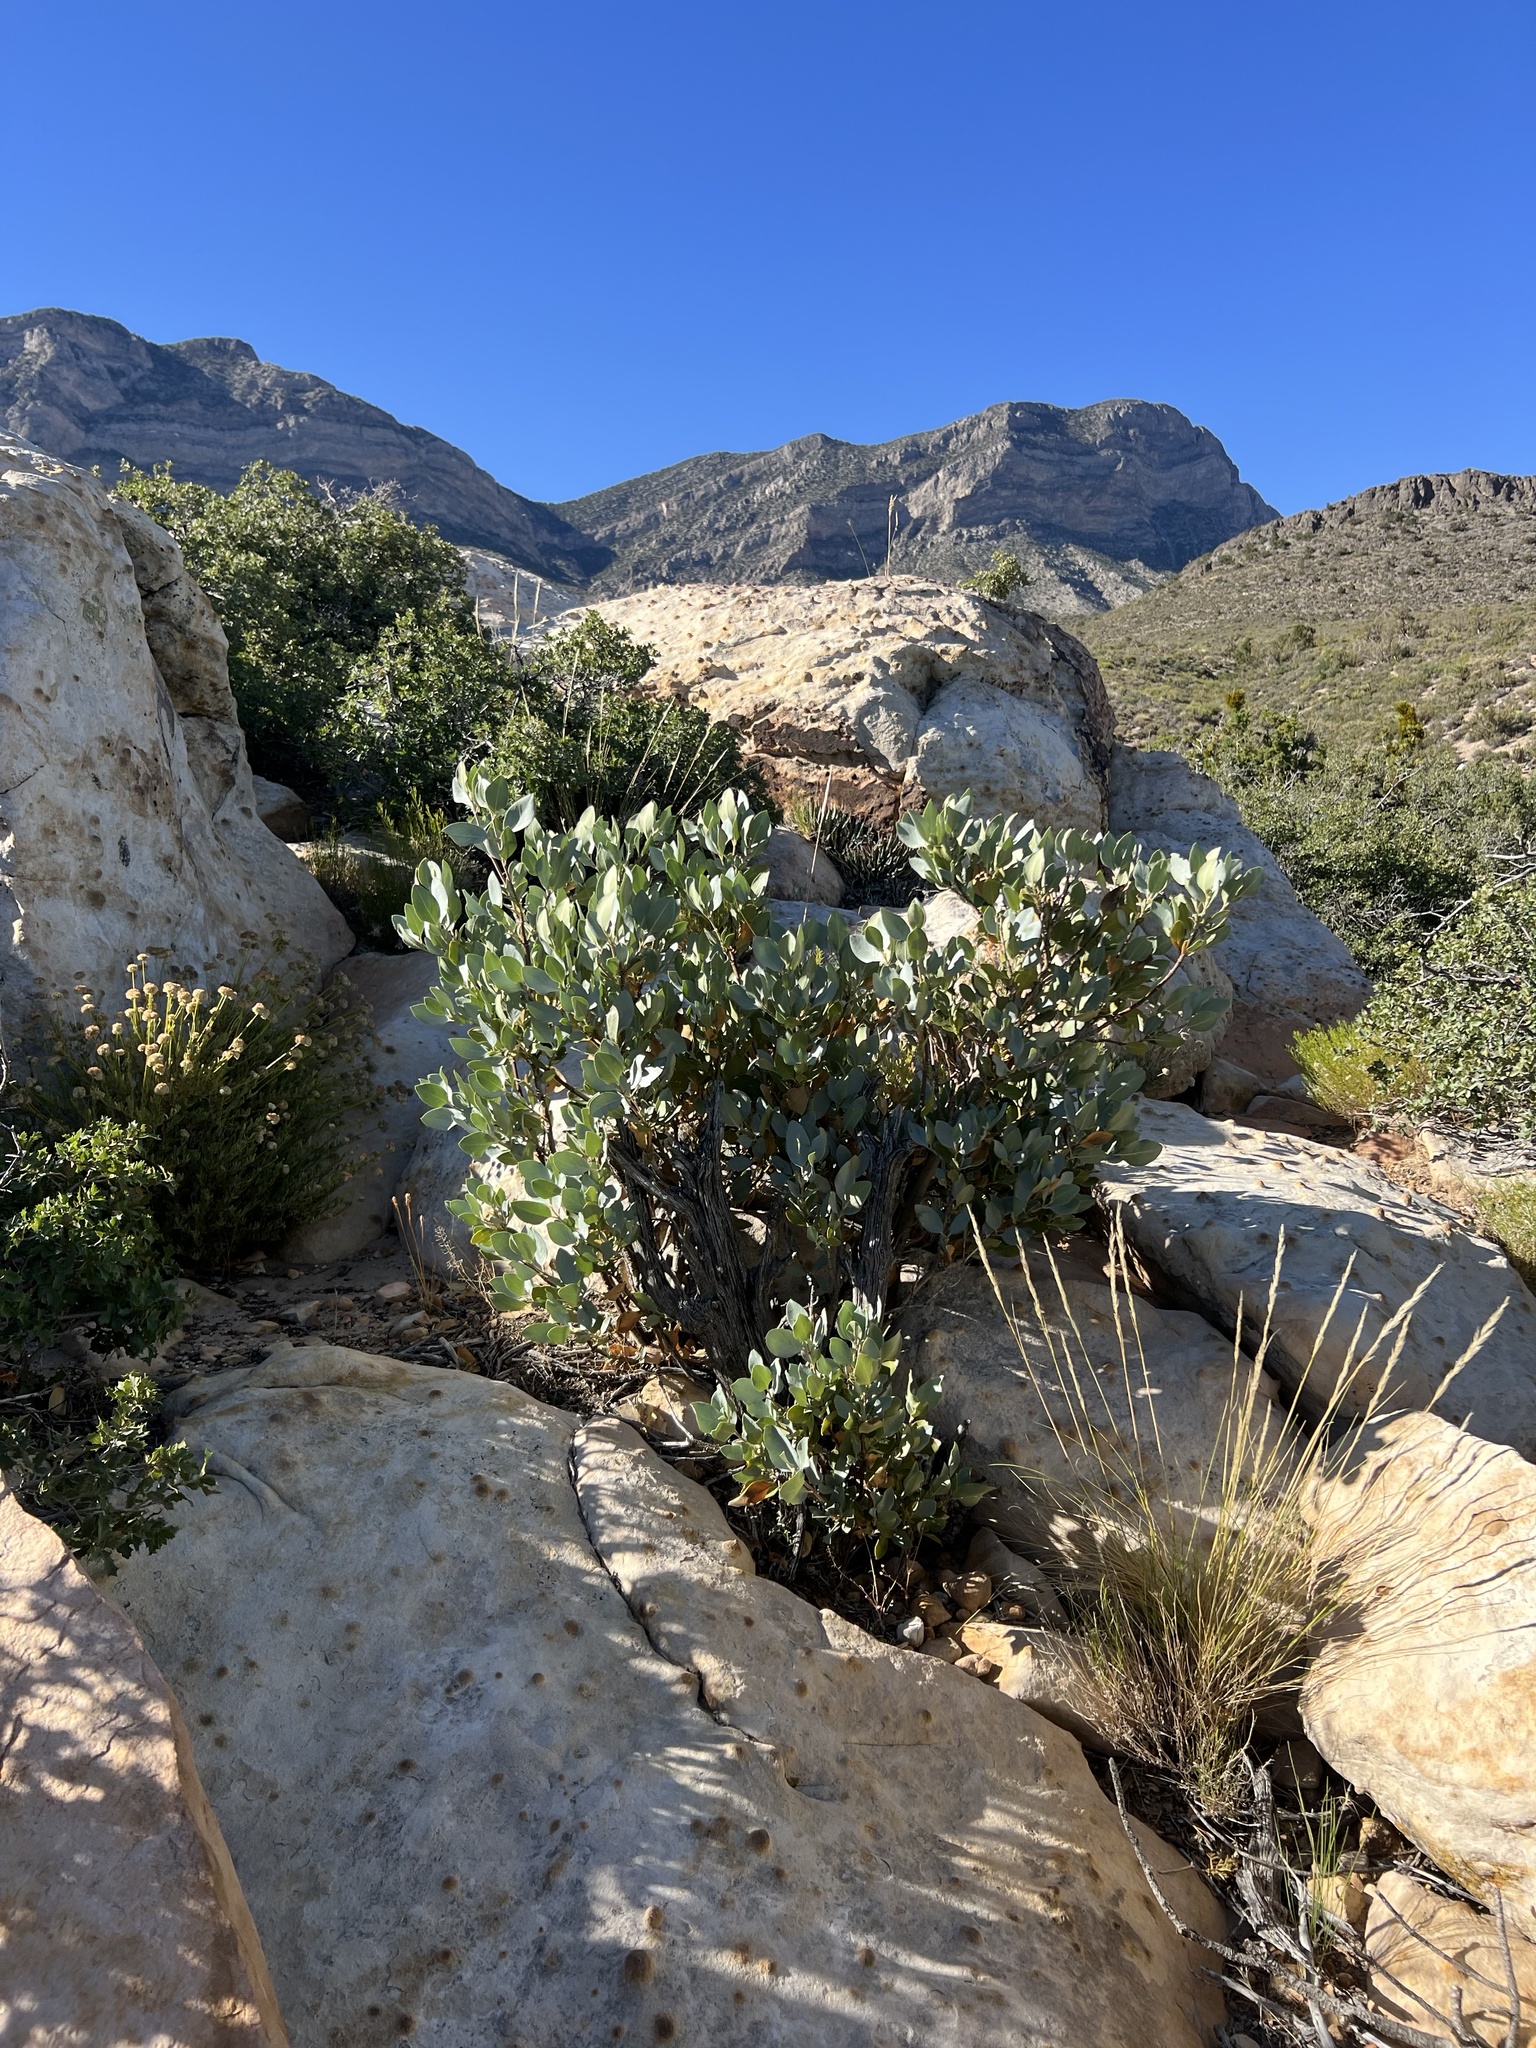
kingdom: Plantae
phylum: Tracheophyta
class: Magnoliopsida
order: Garryales
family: Garryaceae
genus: Garrya
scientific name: Garrya flavescens
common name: Ashy silk-tassel
